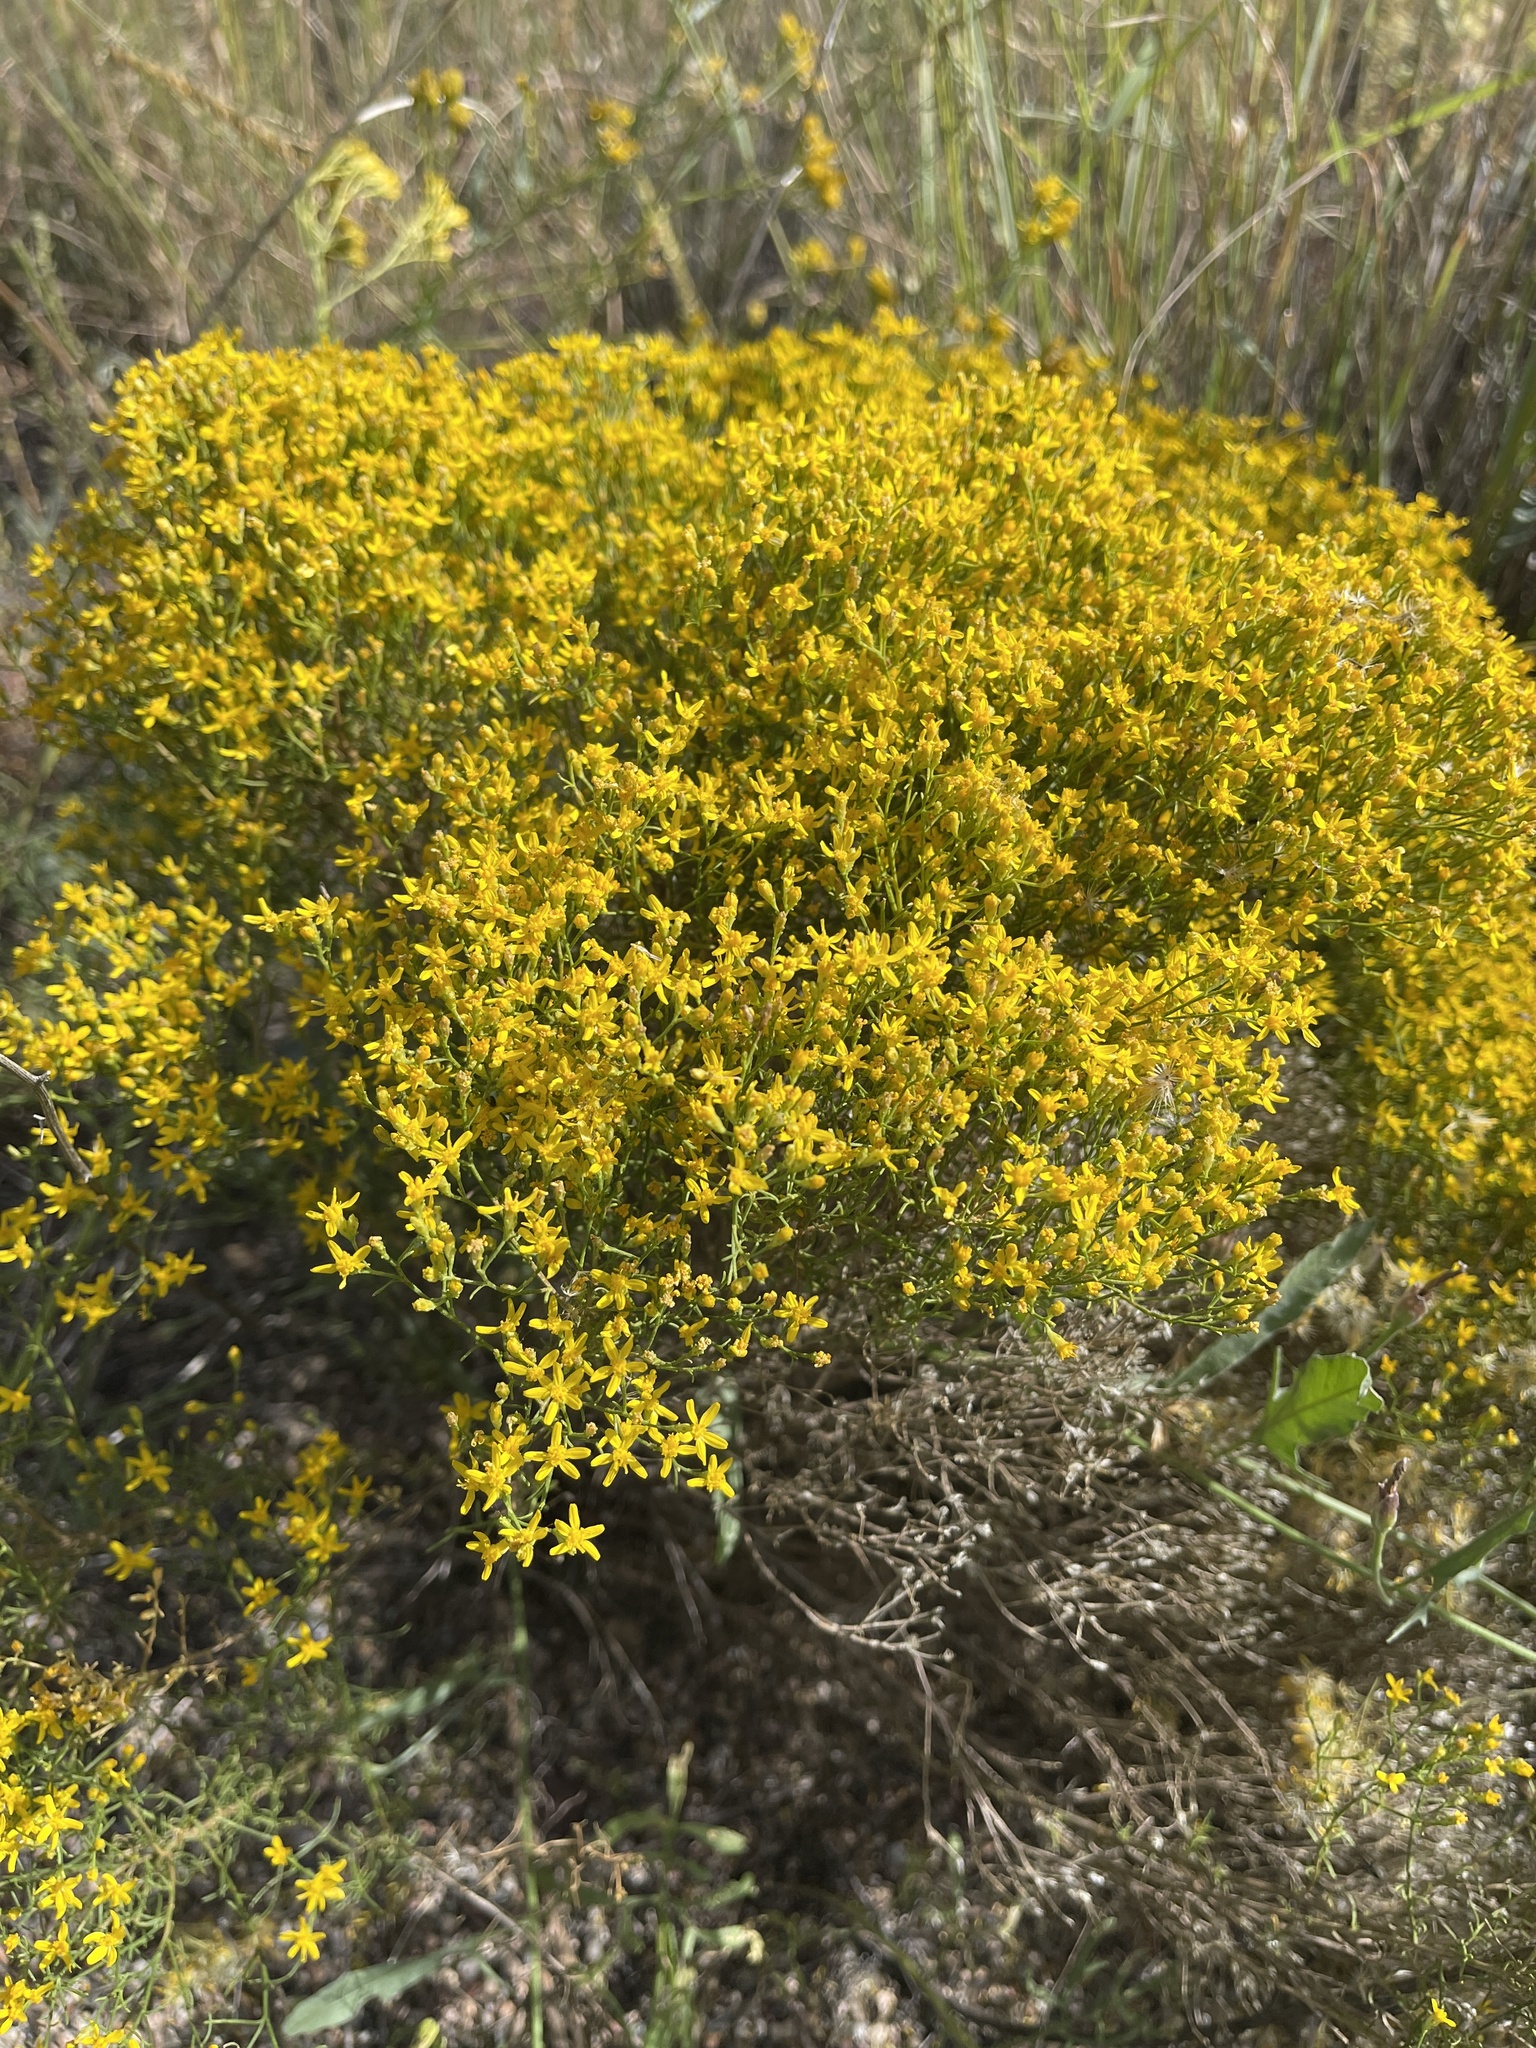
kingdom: Plantae
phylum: Tracheophyta
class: Magnoliopsida
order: Asterales
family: Asteraceae
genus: Gutierrezia
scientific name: Gutierrezia sarothrae
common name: Broom snakeweed
